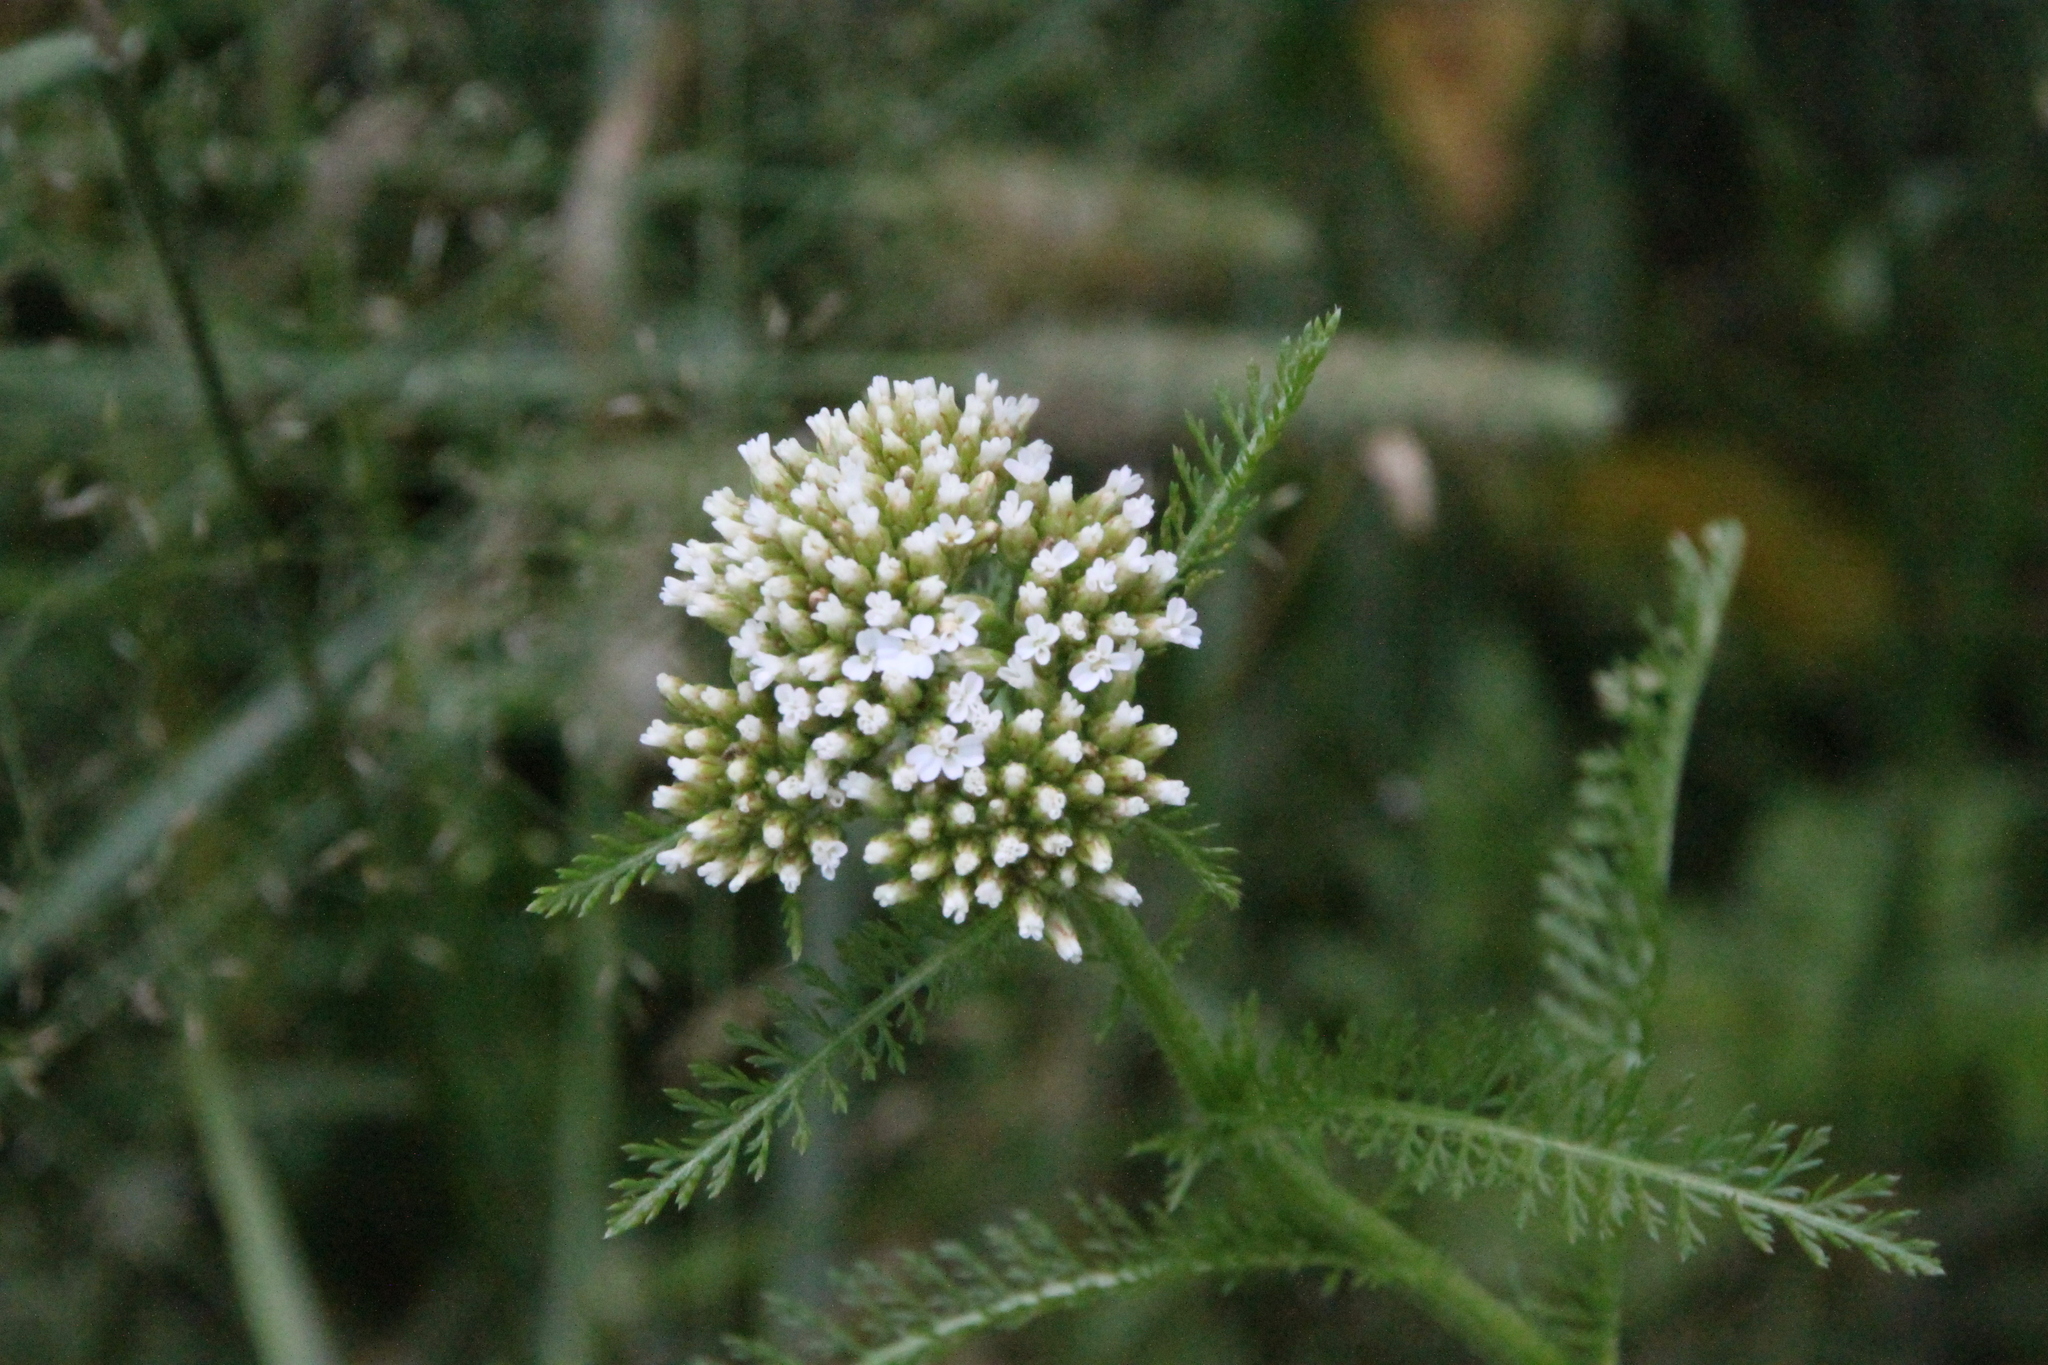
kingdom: Plantae
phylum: Tracheophyta
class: Magnoliopsida
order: Asterales
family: Asteraceae
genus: Achillea
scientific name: Achillea millefolium
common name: Yarrow
